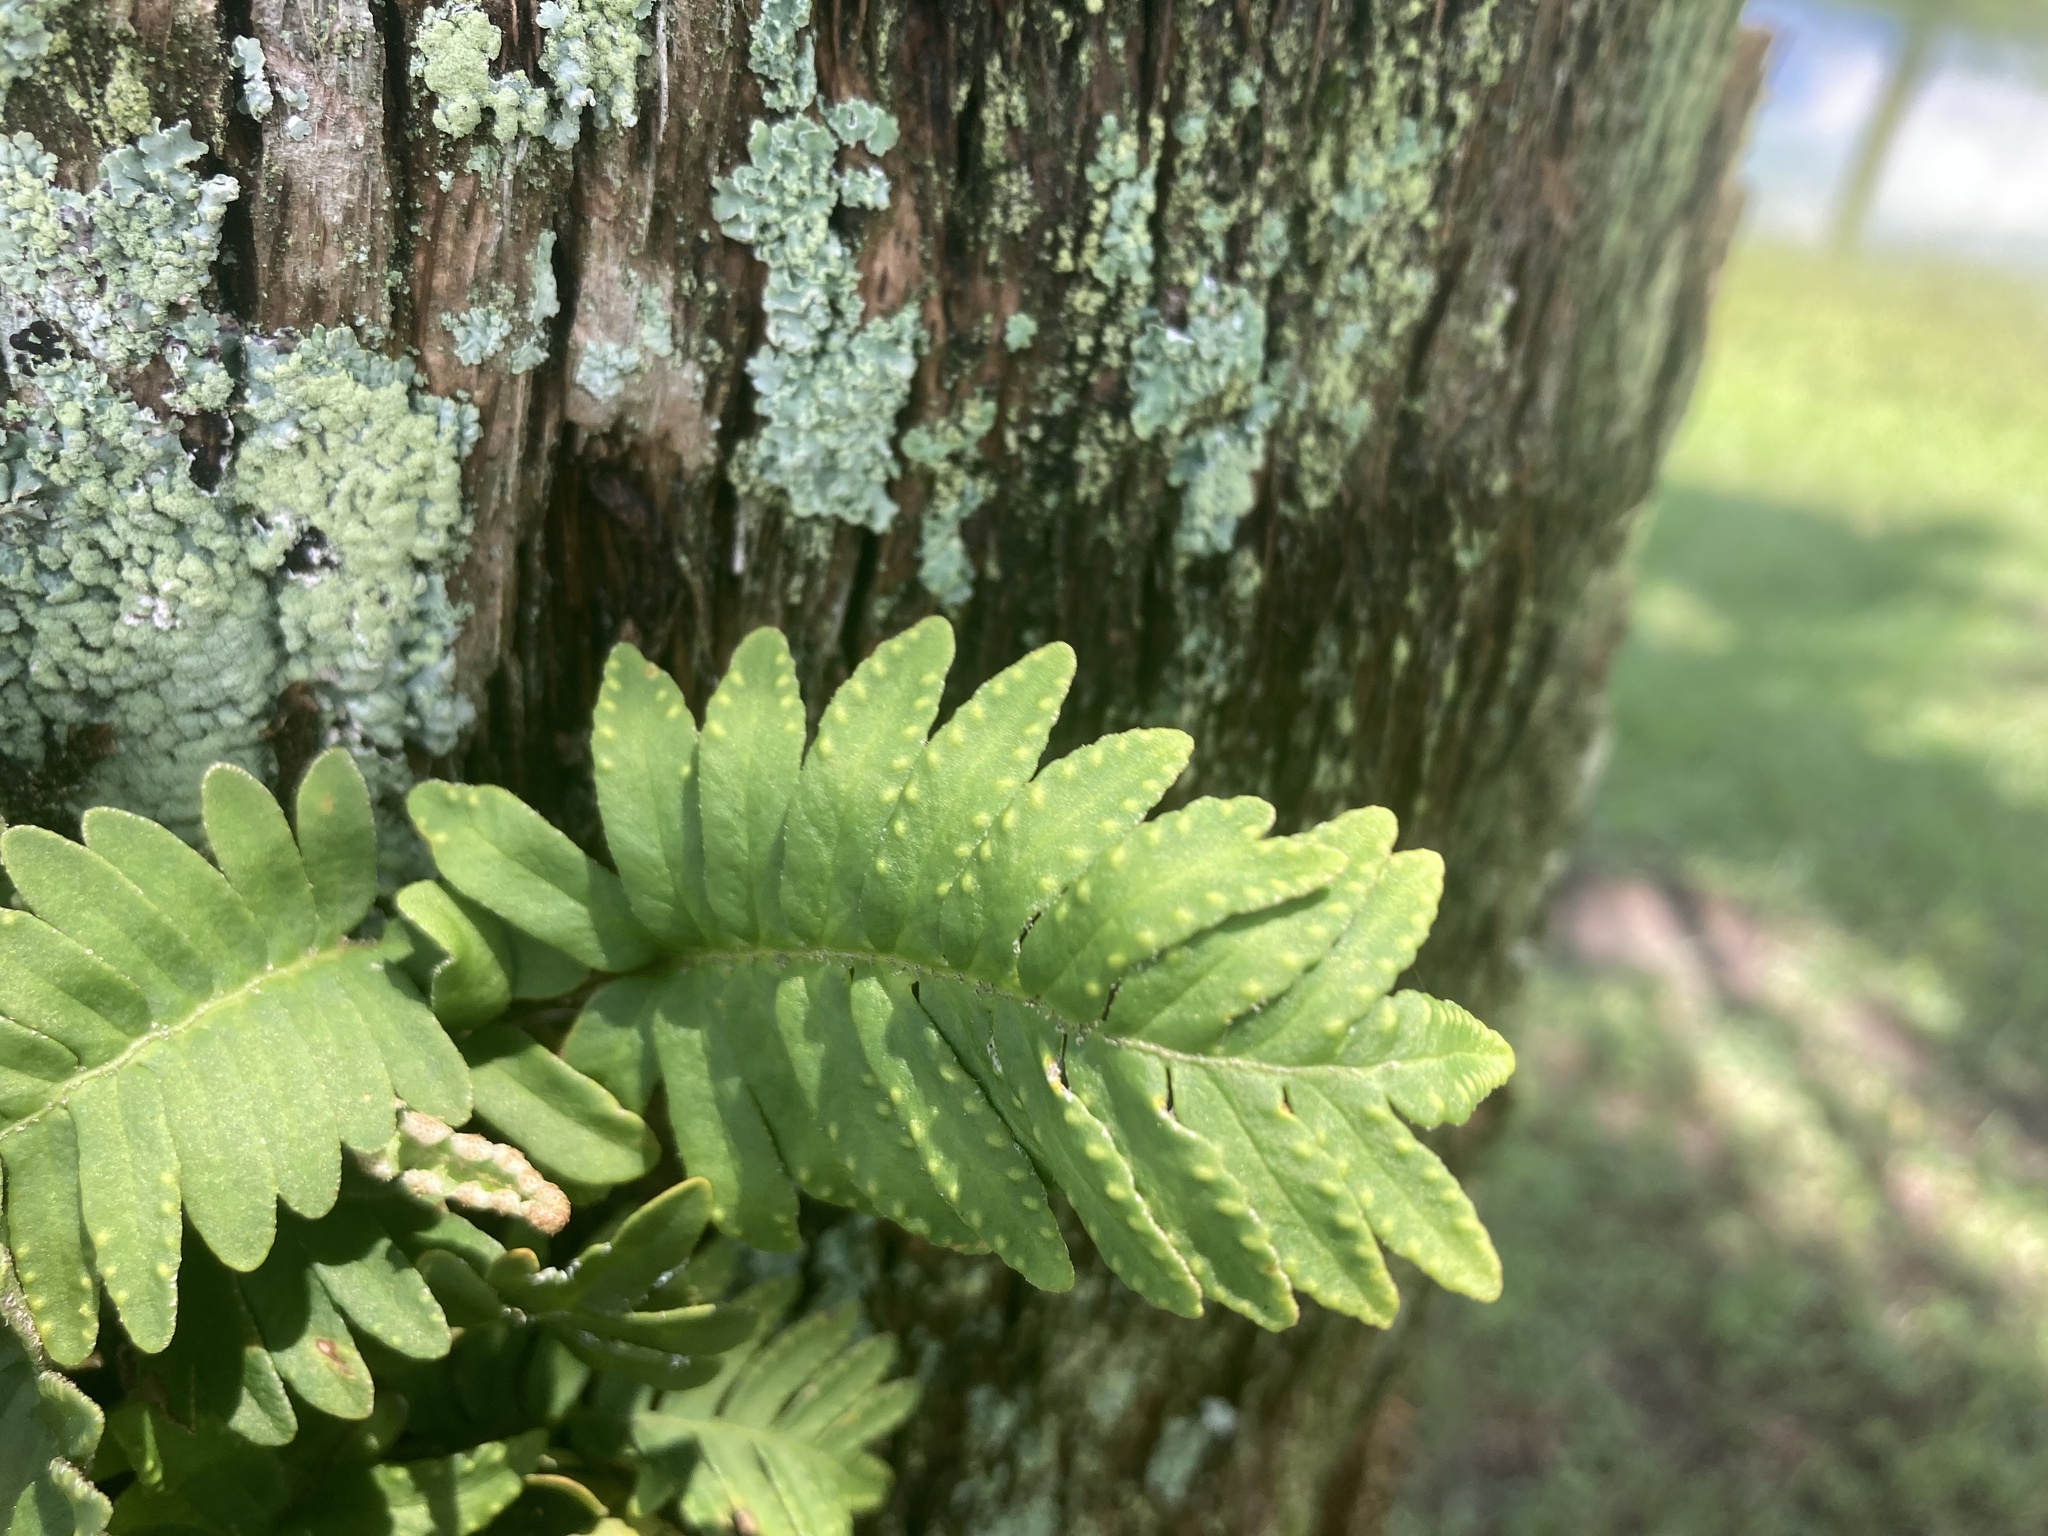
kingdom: Plantae
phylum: Tracheophyta
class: Polypodiopsida
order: Polypodiales
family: Polypodiaceae
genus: Pleopeltis
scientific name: Pleopeltis michauxiana
